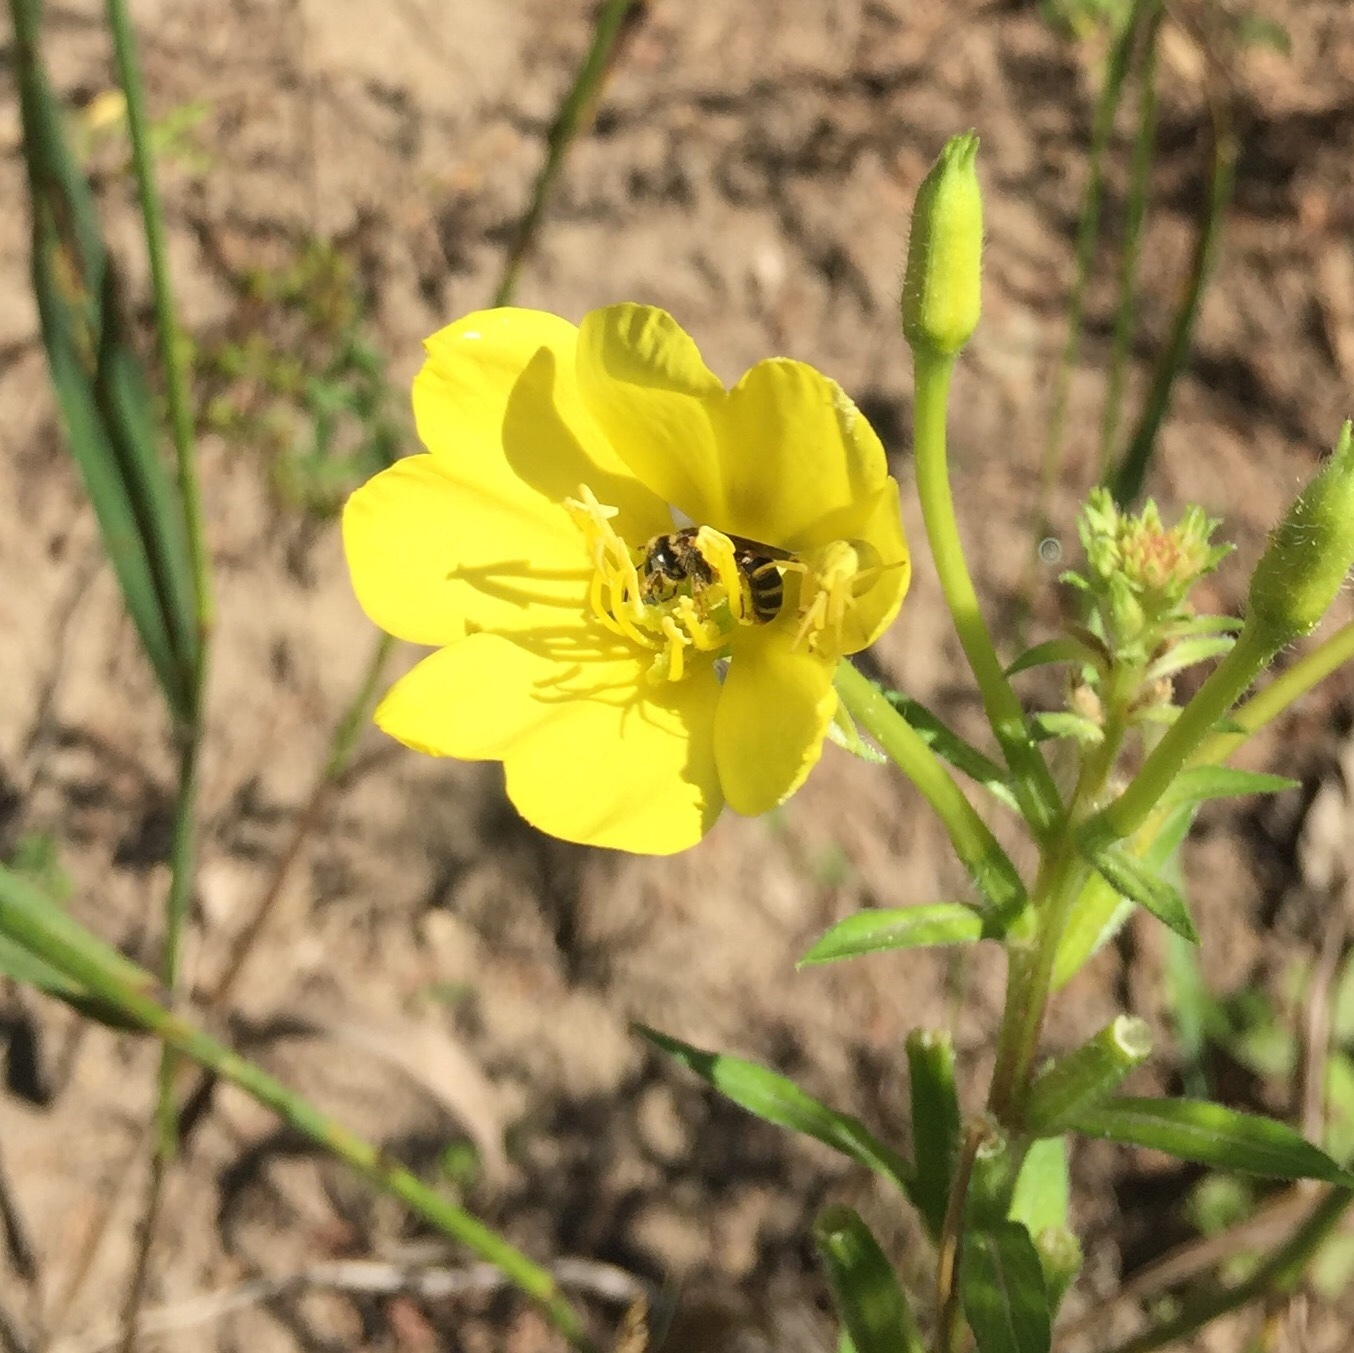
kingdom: Plantae
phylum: Tracheophyta
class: Magnoliopsida
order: Myrtales
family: Onagraceae
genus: Oenothera
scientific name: Oenothera biennis
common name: Common evening-primrose
